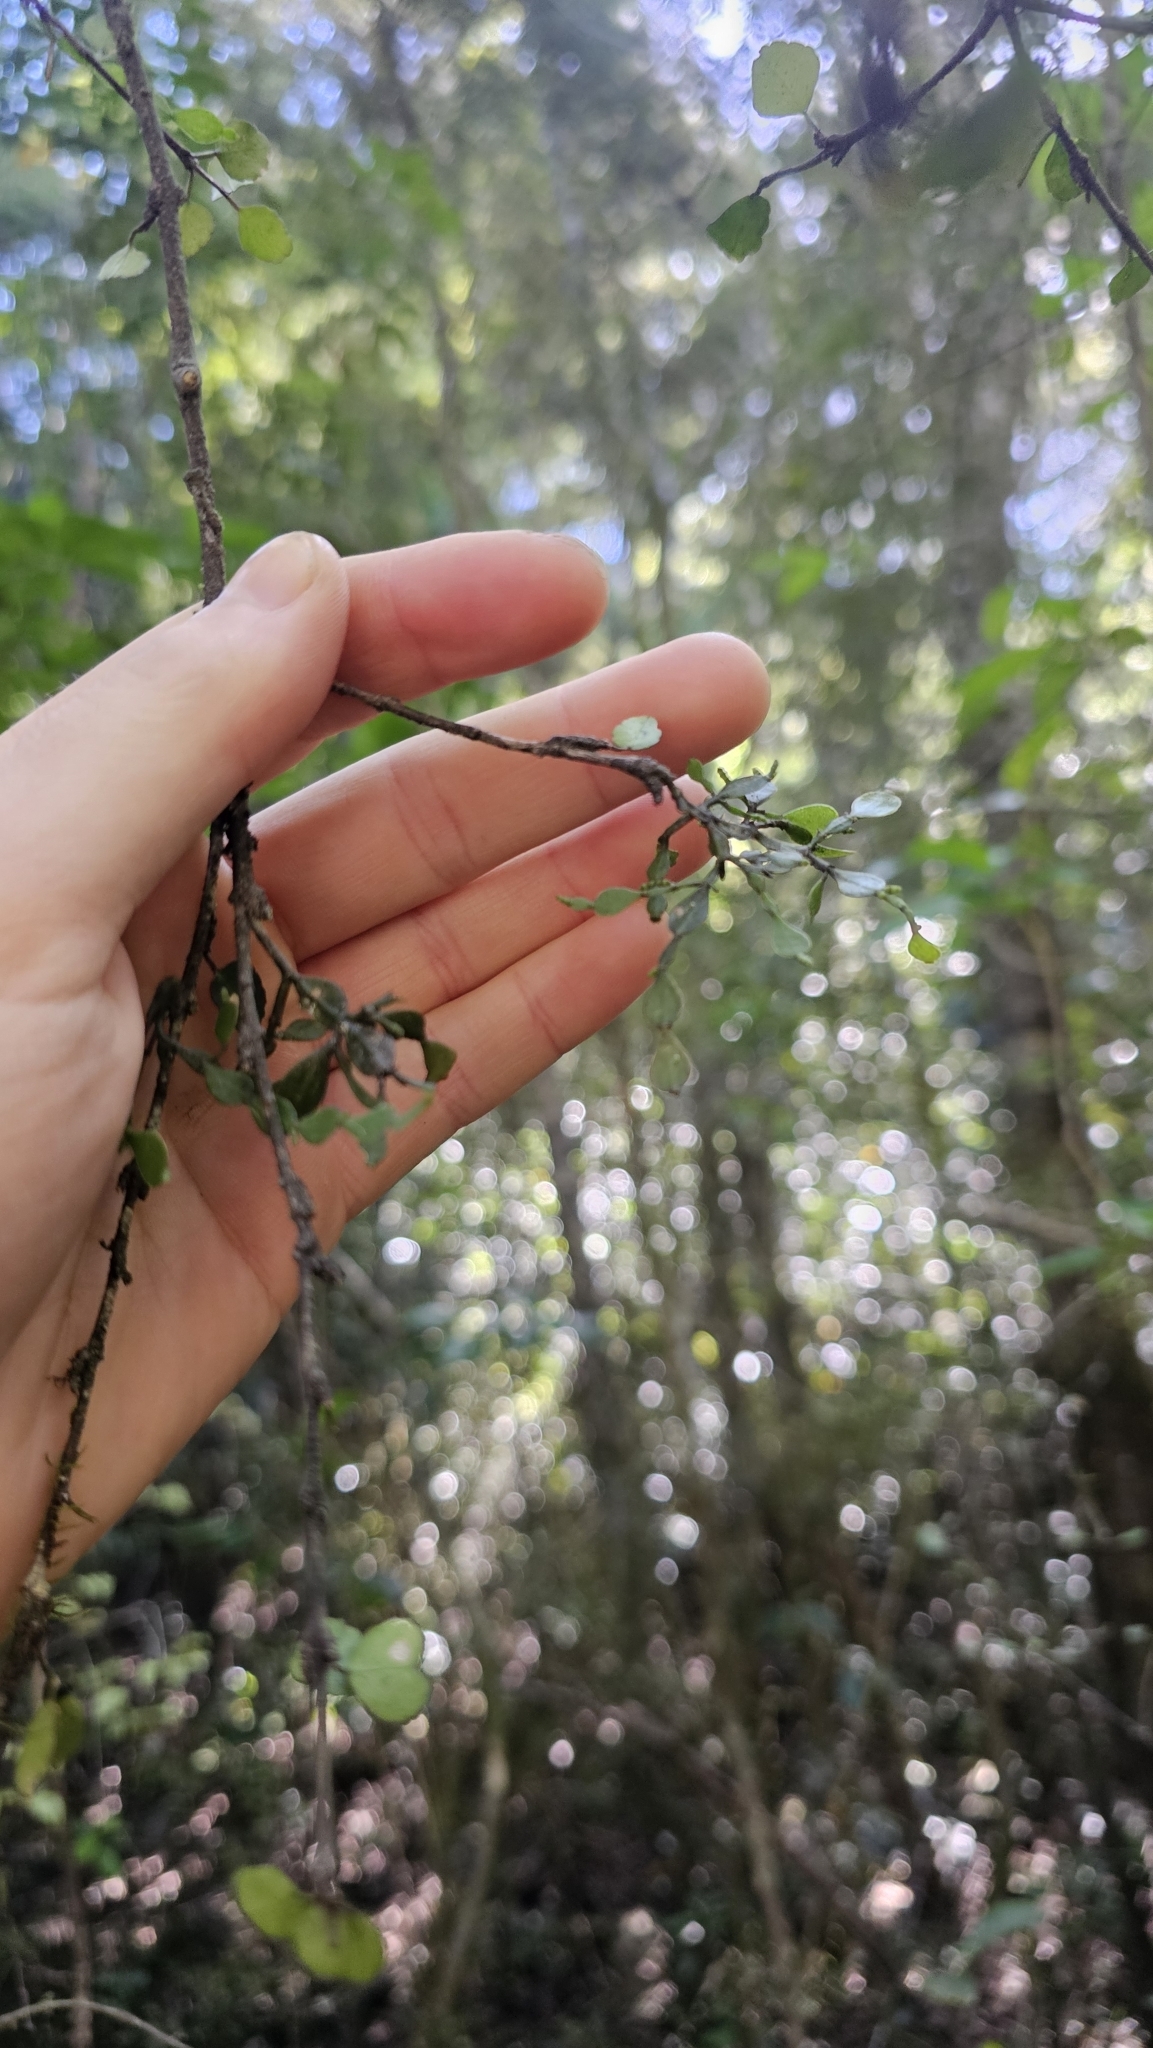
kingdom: Plantae
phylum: Tracheophyta
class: Magnoliopsida
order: Santalales
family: Viscaceae
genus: Korthalsella
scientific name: Korthalsella lindsayi
